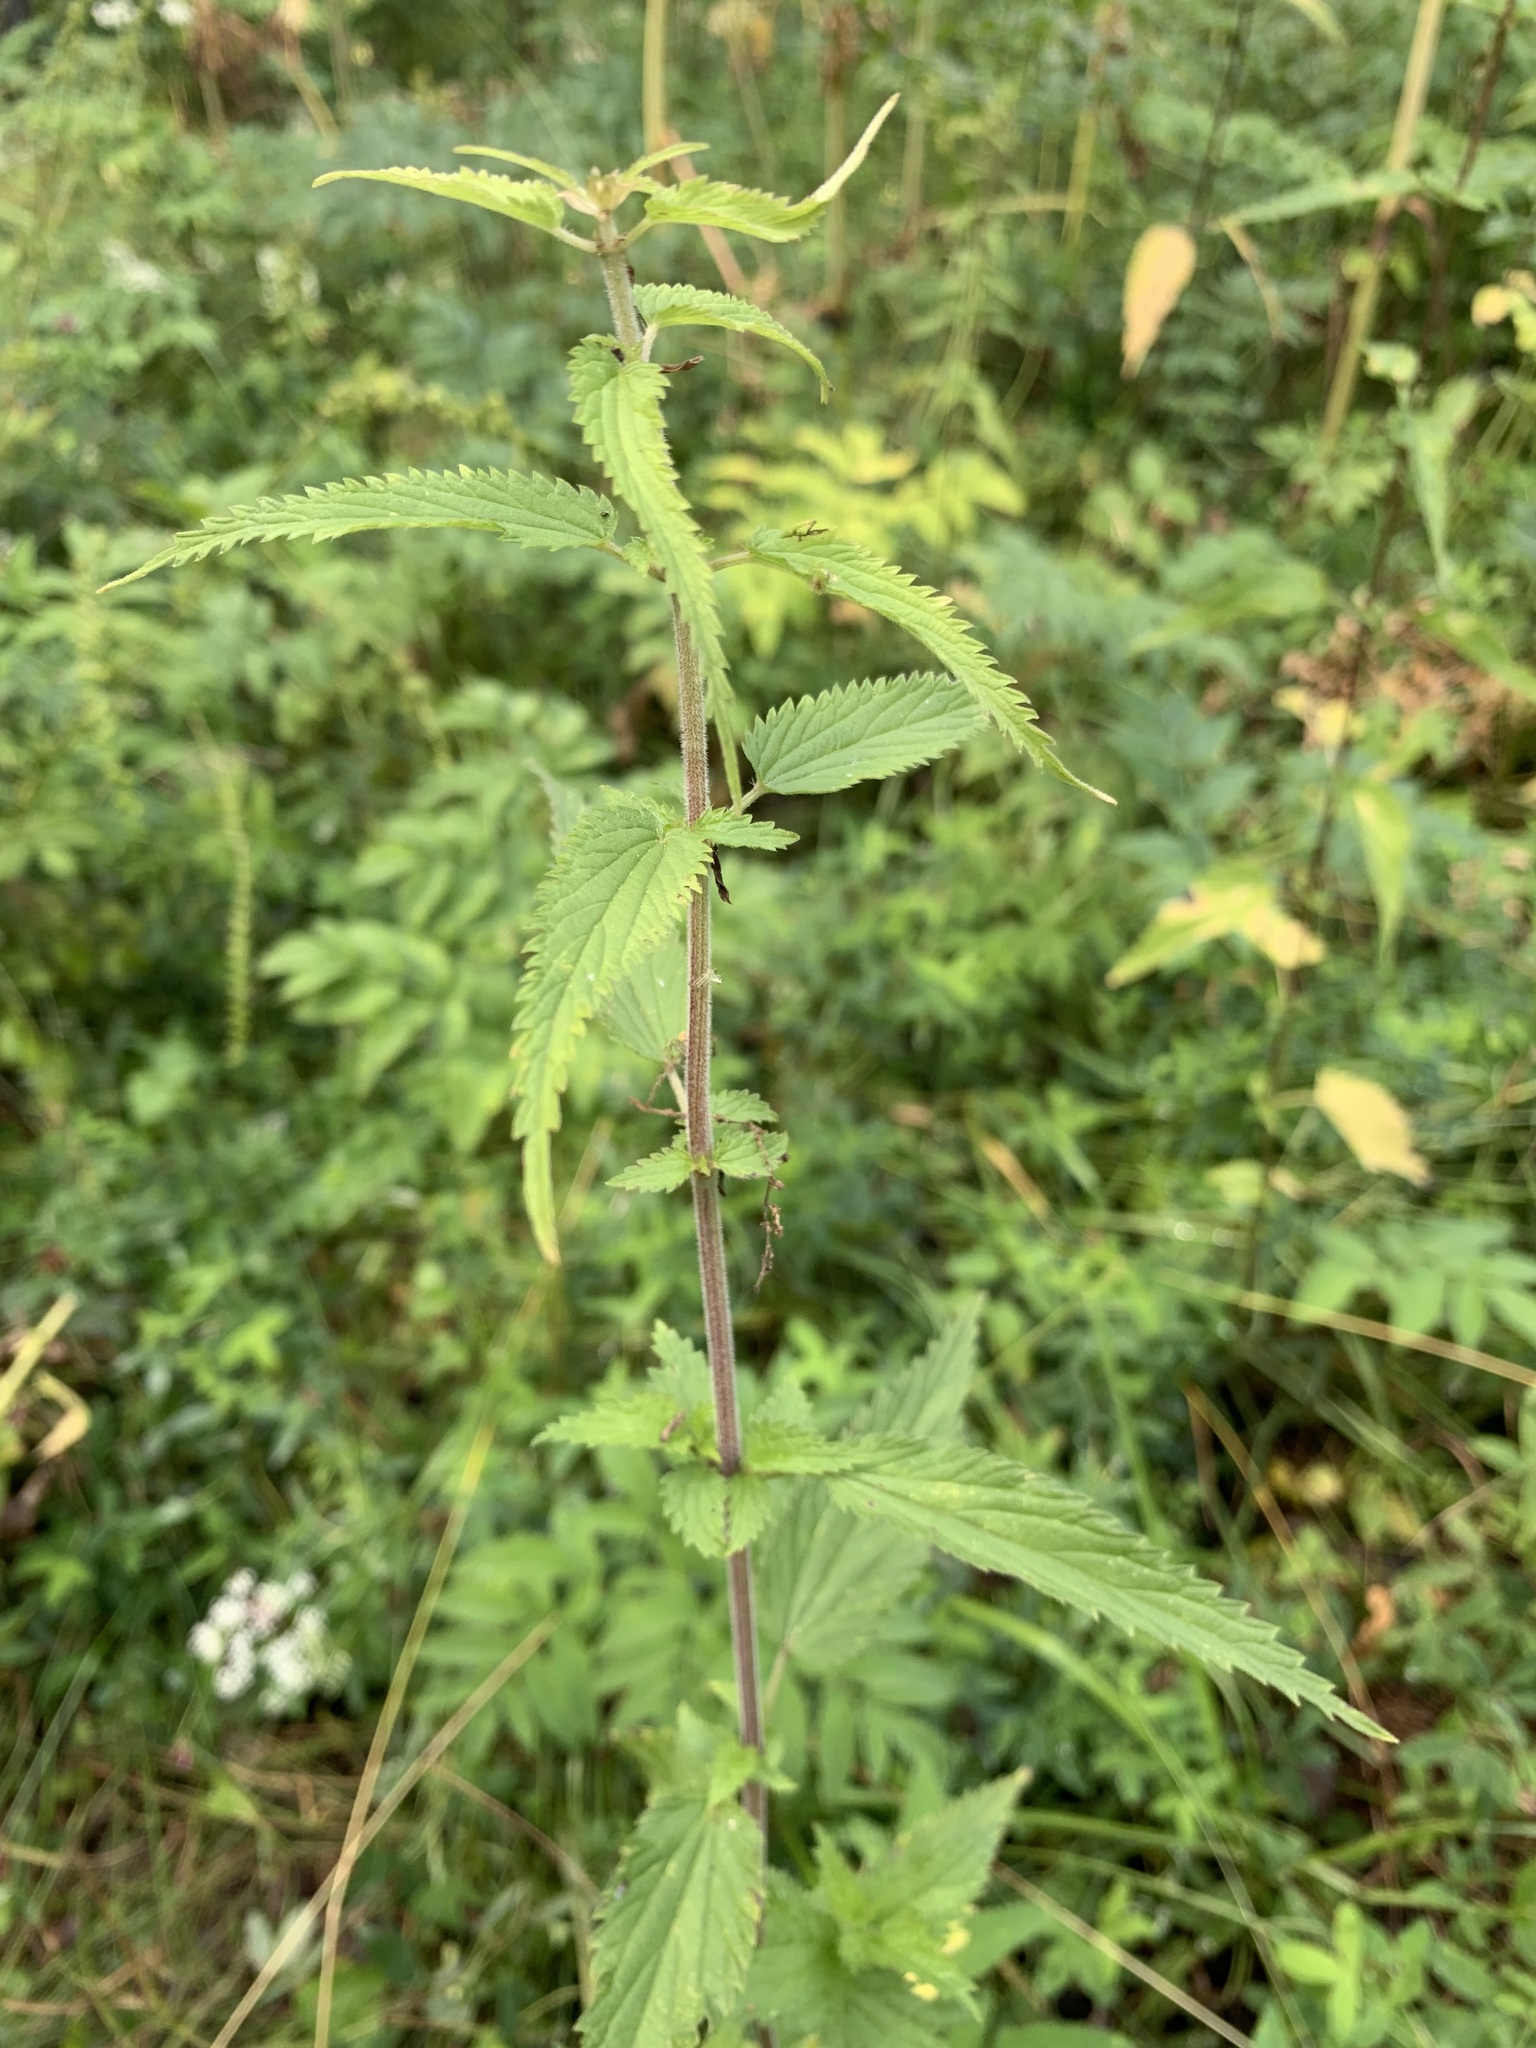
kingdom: Plantae
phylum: Tracheophyta
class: Magnoliopsida
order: Rosales
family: Urticaceae
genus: Urtica
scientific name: Urtica galeopsifolia
